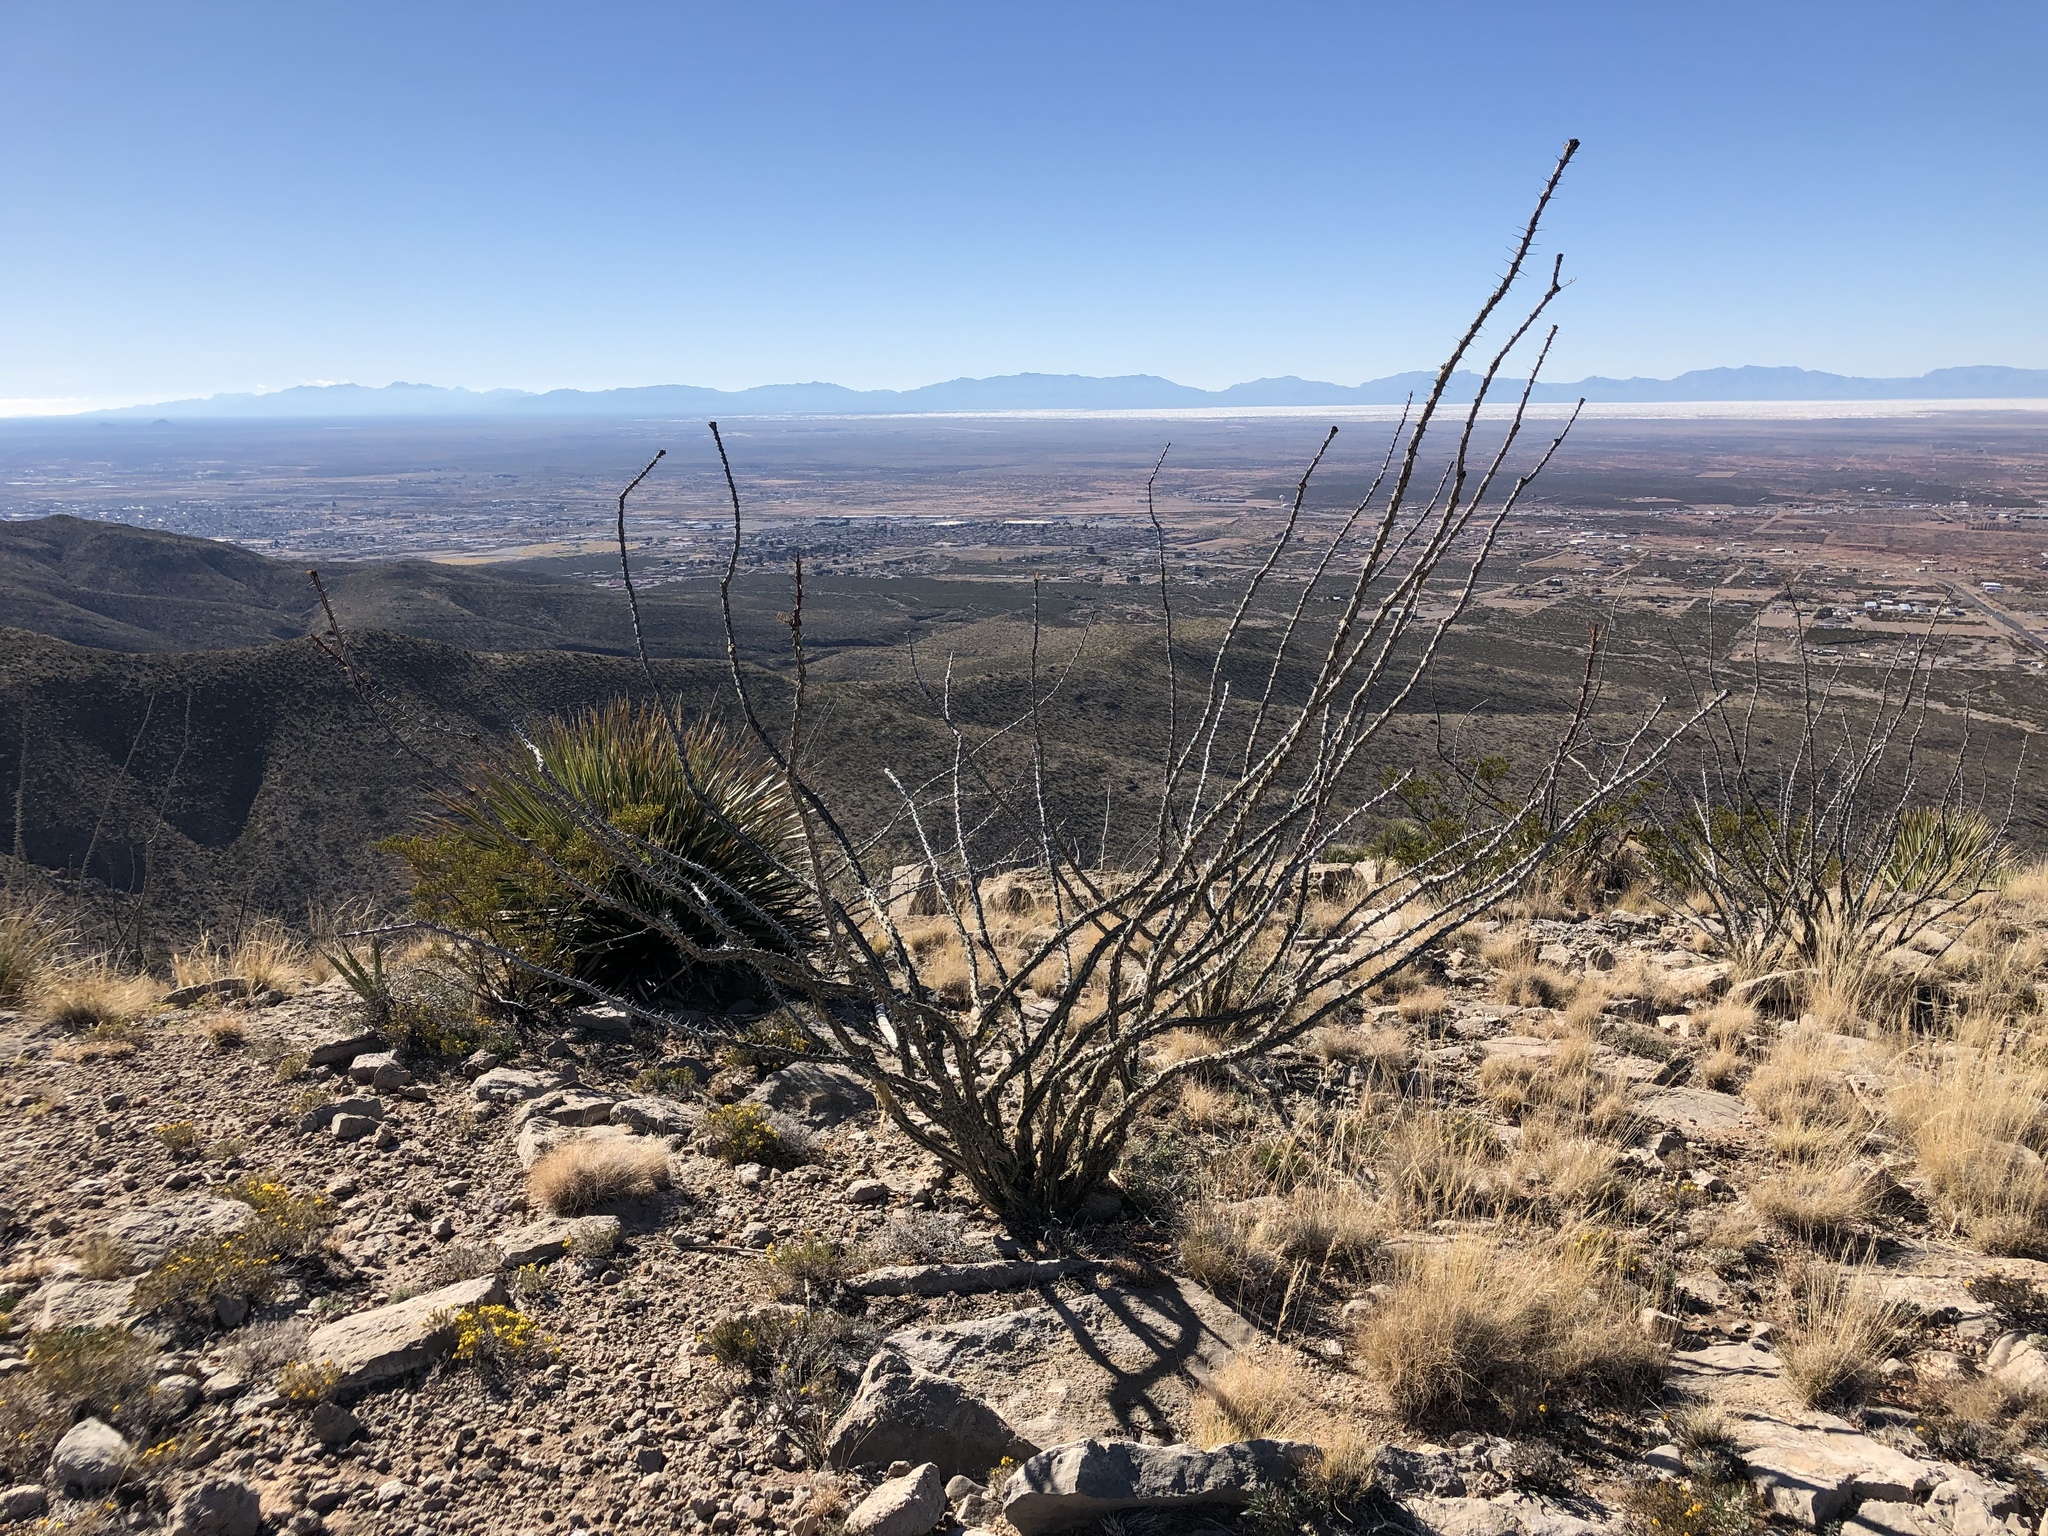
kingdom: Plantae
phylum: Tracheophyta
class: Magnoliopsida
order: Ericales
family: Fouquieriaceae
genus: Fouquieria
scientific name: Fouquieria splendens
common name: Vine-cactus
